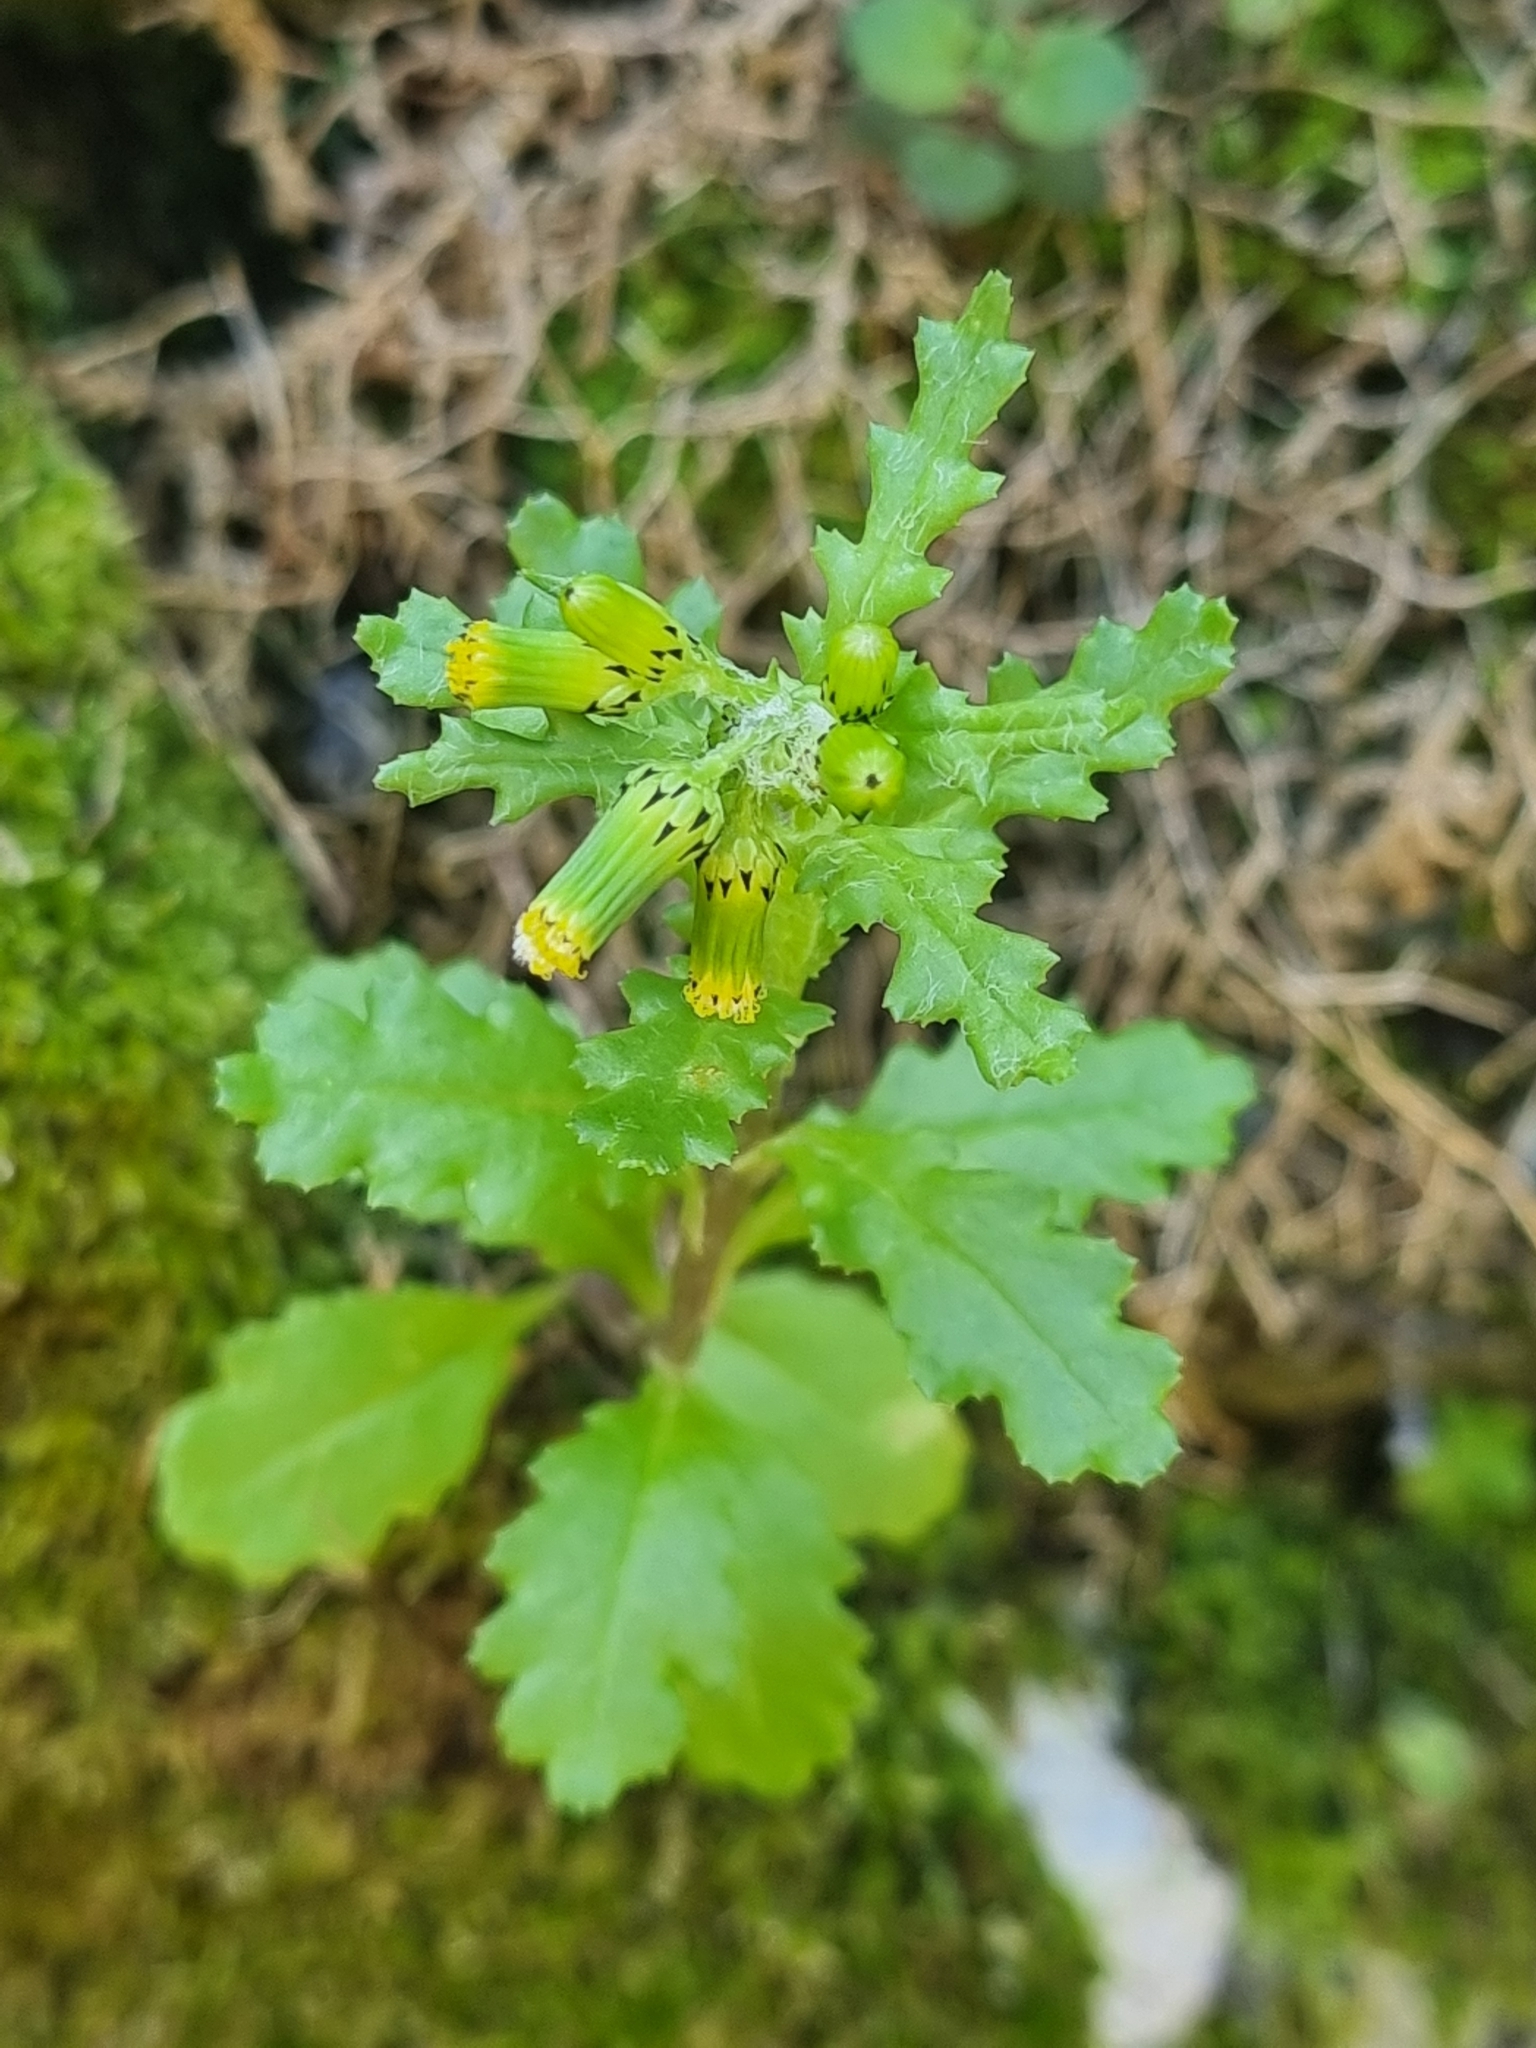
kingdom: Plantae
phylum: Tracheophyta
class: Magnoliopsida
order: Asterales
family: Asteraceae
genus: Senecio
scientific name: Senecio vulgaris
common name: Old-man-in-the-spring
